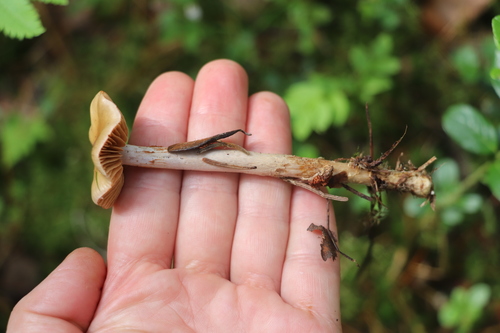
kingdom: Fungi
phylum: Basidiomycota
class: Agaricomycetes
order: Agaricales
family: Cortinariaceae
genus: Cortinarius
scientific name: Cortinarius collinitus
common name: Blue-girdled webcap
